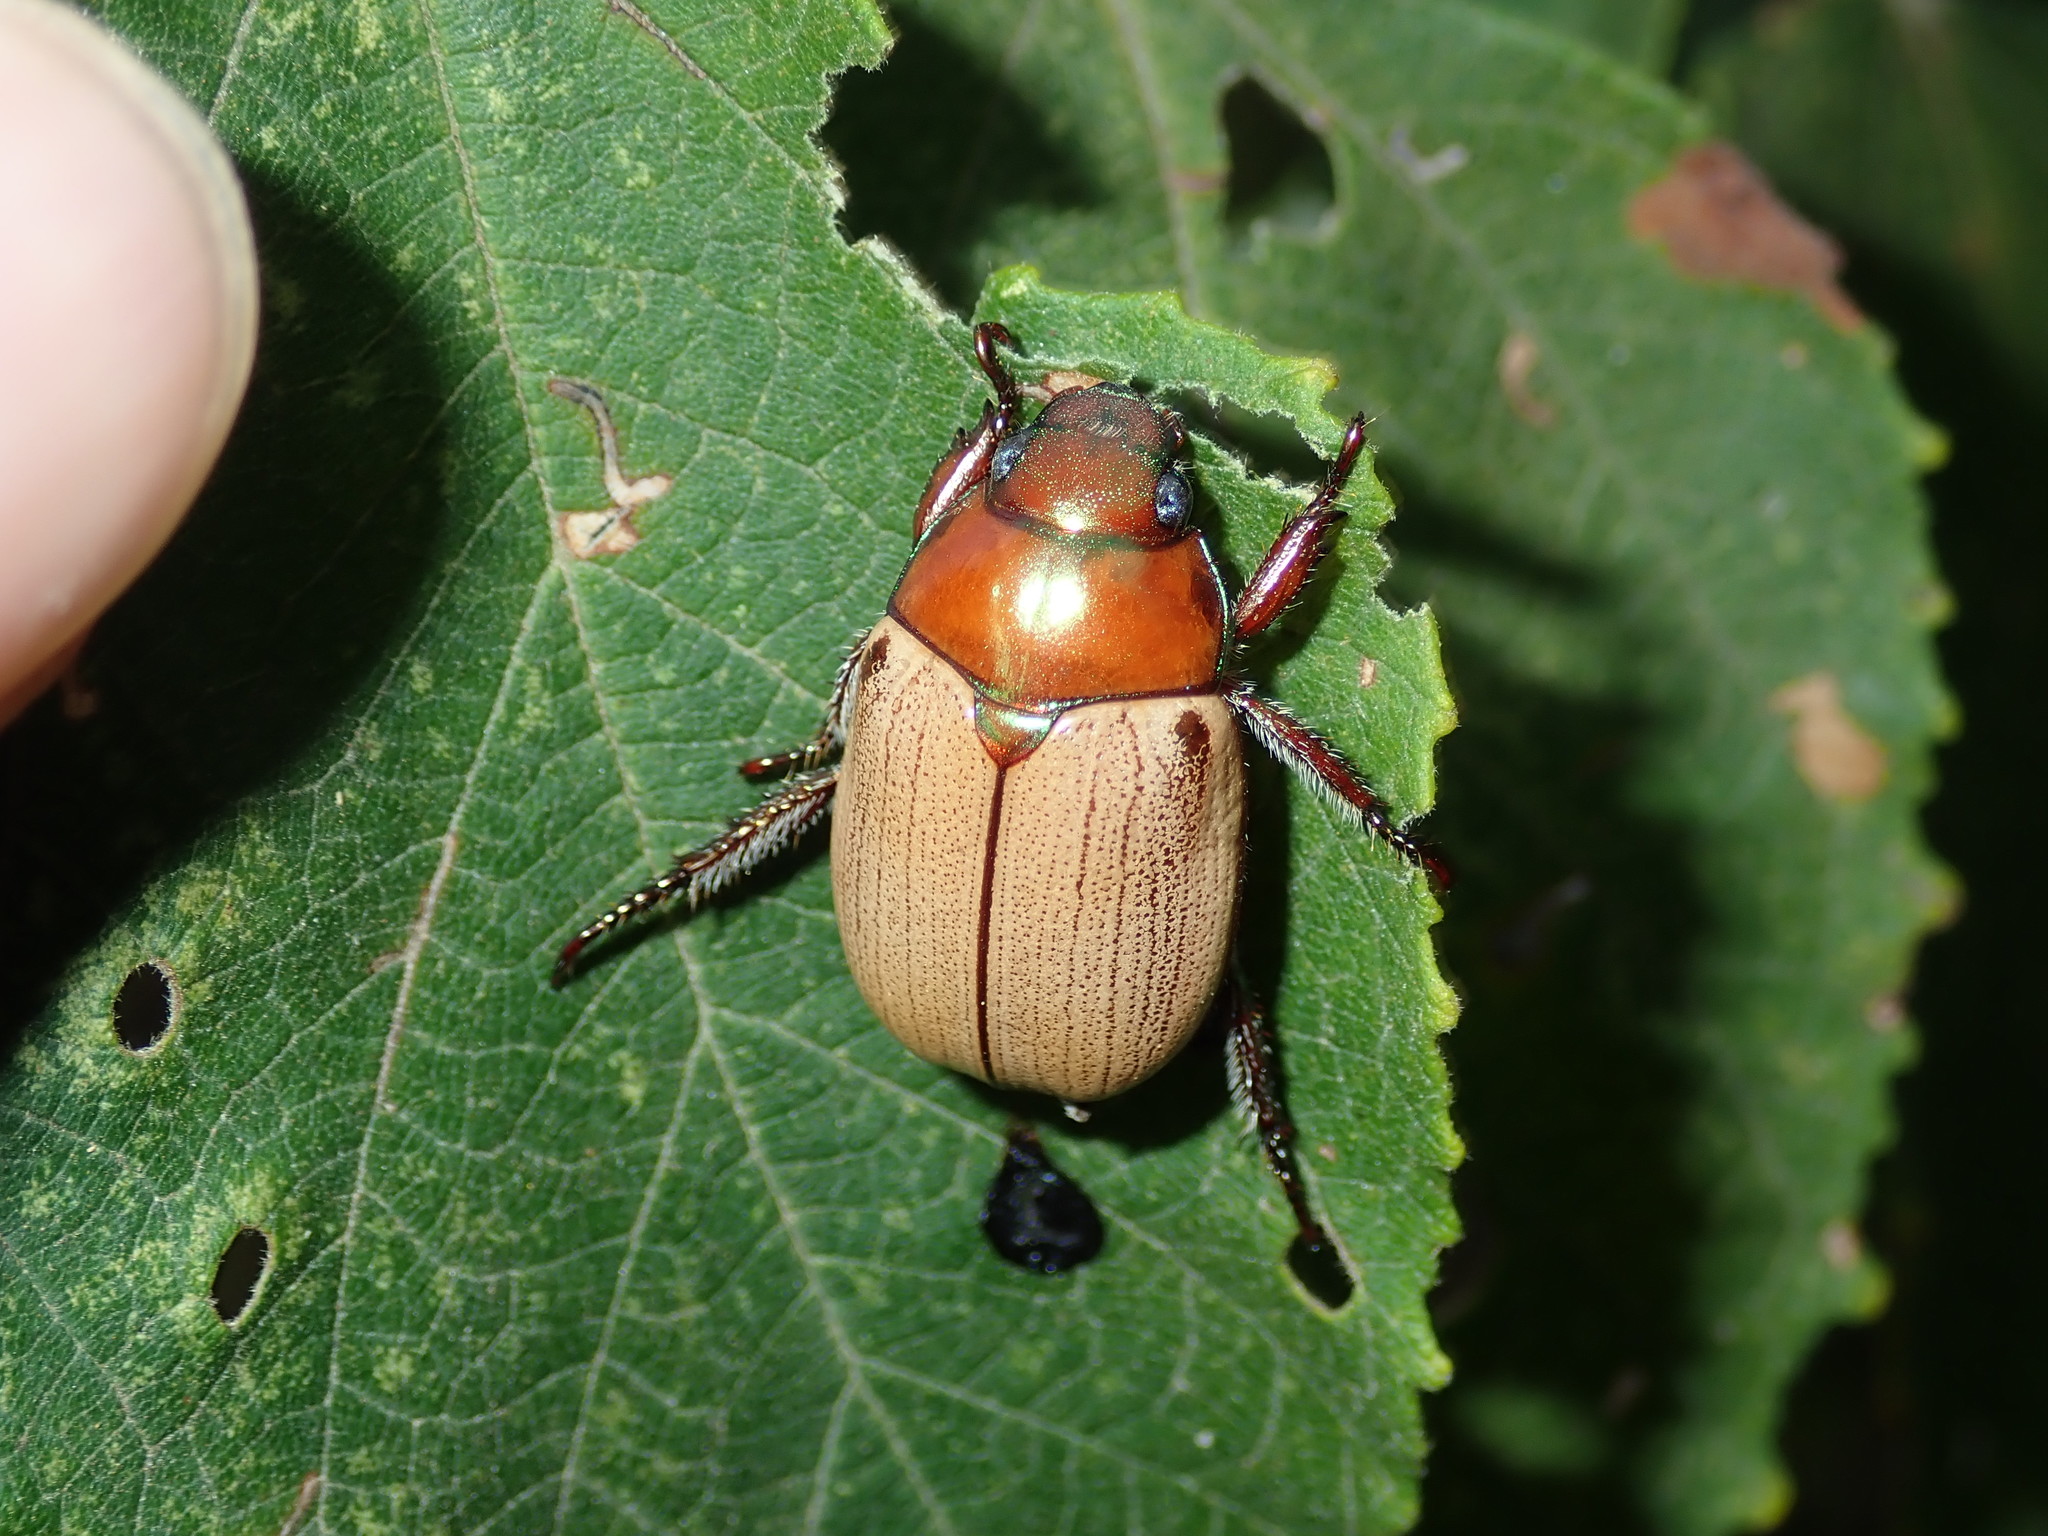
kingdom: Animalia
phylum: Arthropoda
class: Insecta
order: Coleoptera
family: Scarabaeidae
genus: Anoplognathus
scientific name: Anoplognathus flavipennis
